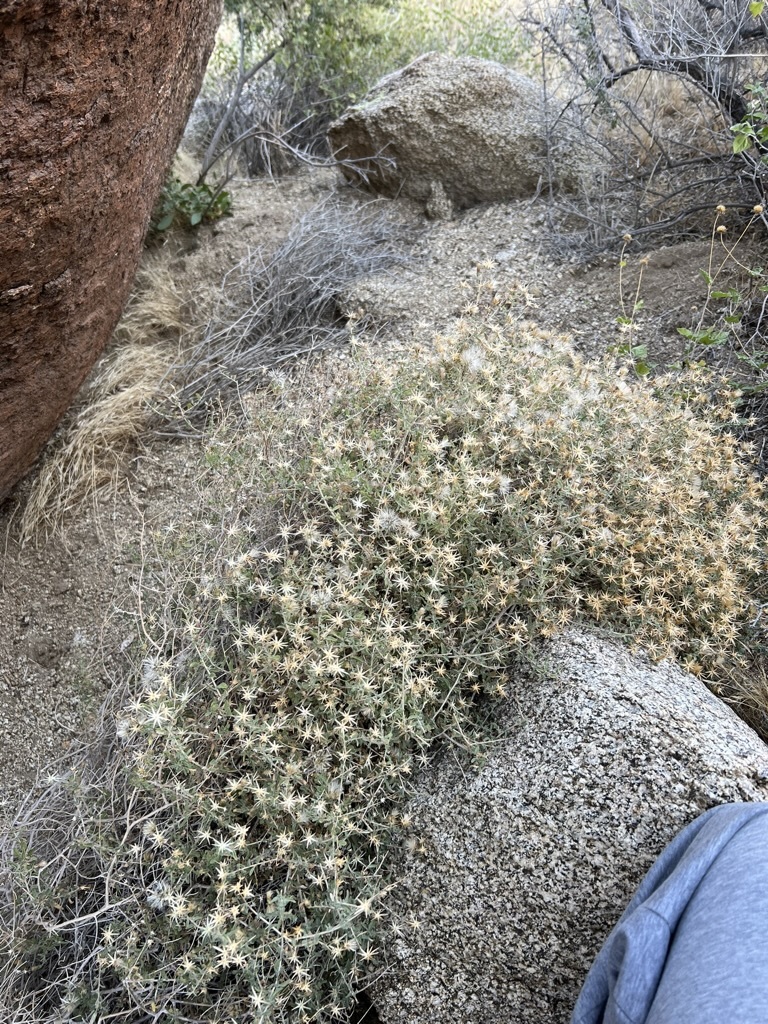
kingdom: Plantae
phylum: Tracheophyta
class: Magnoliopsida
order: Asterales
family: Asteraceae
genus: Brickellia
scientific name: Brickellia frutescens
